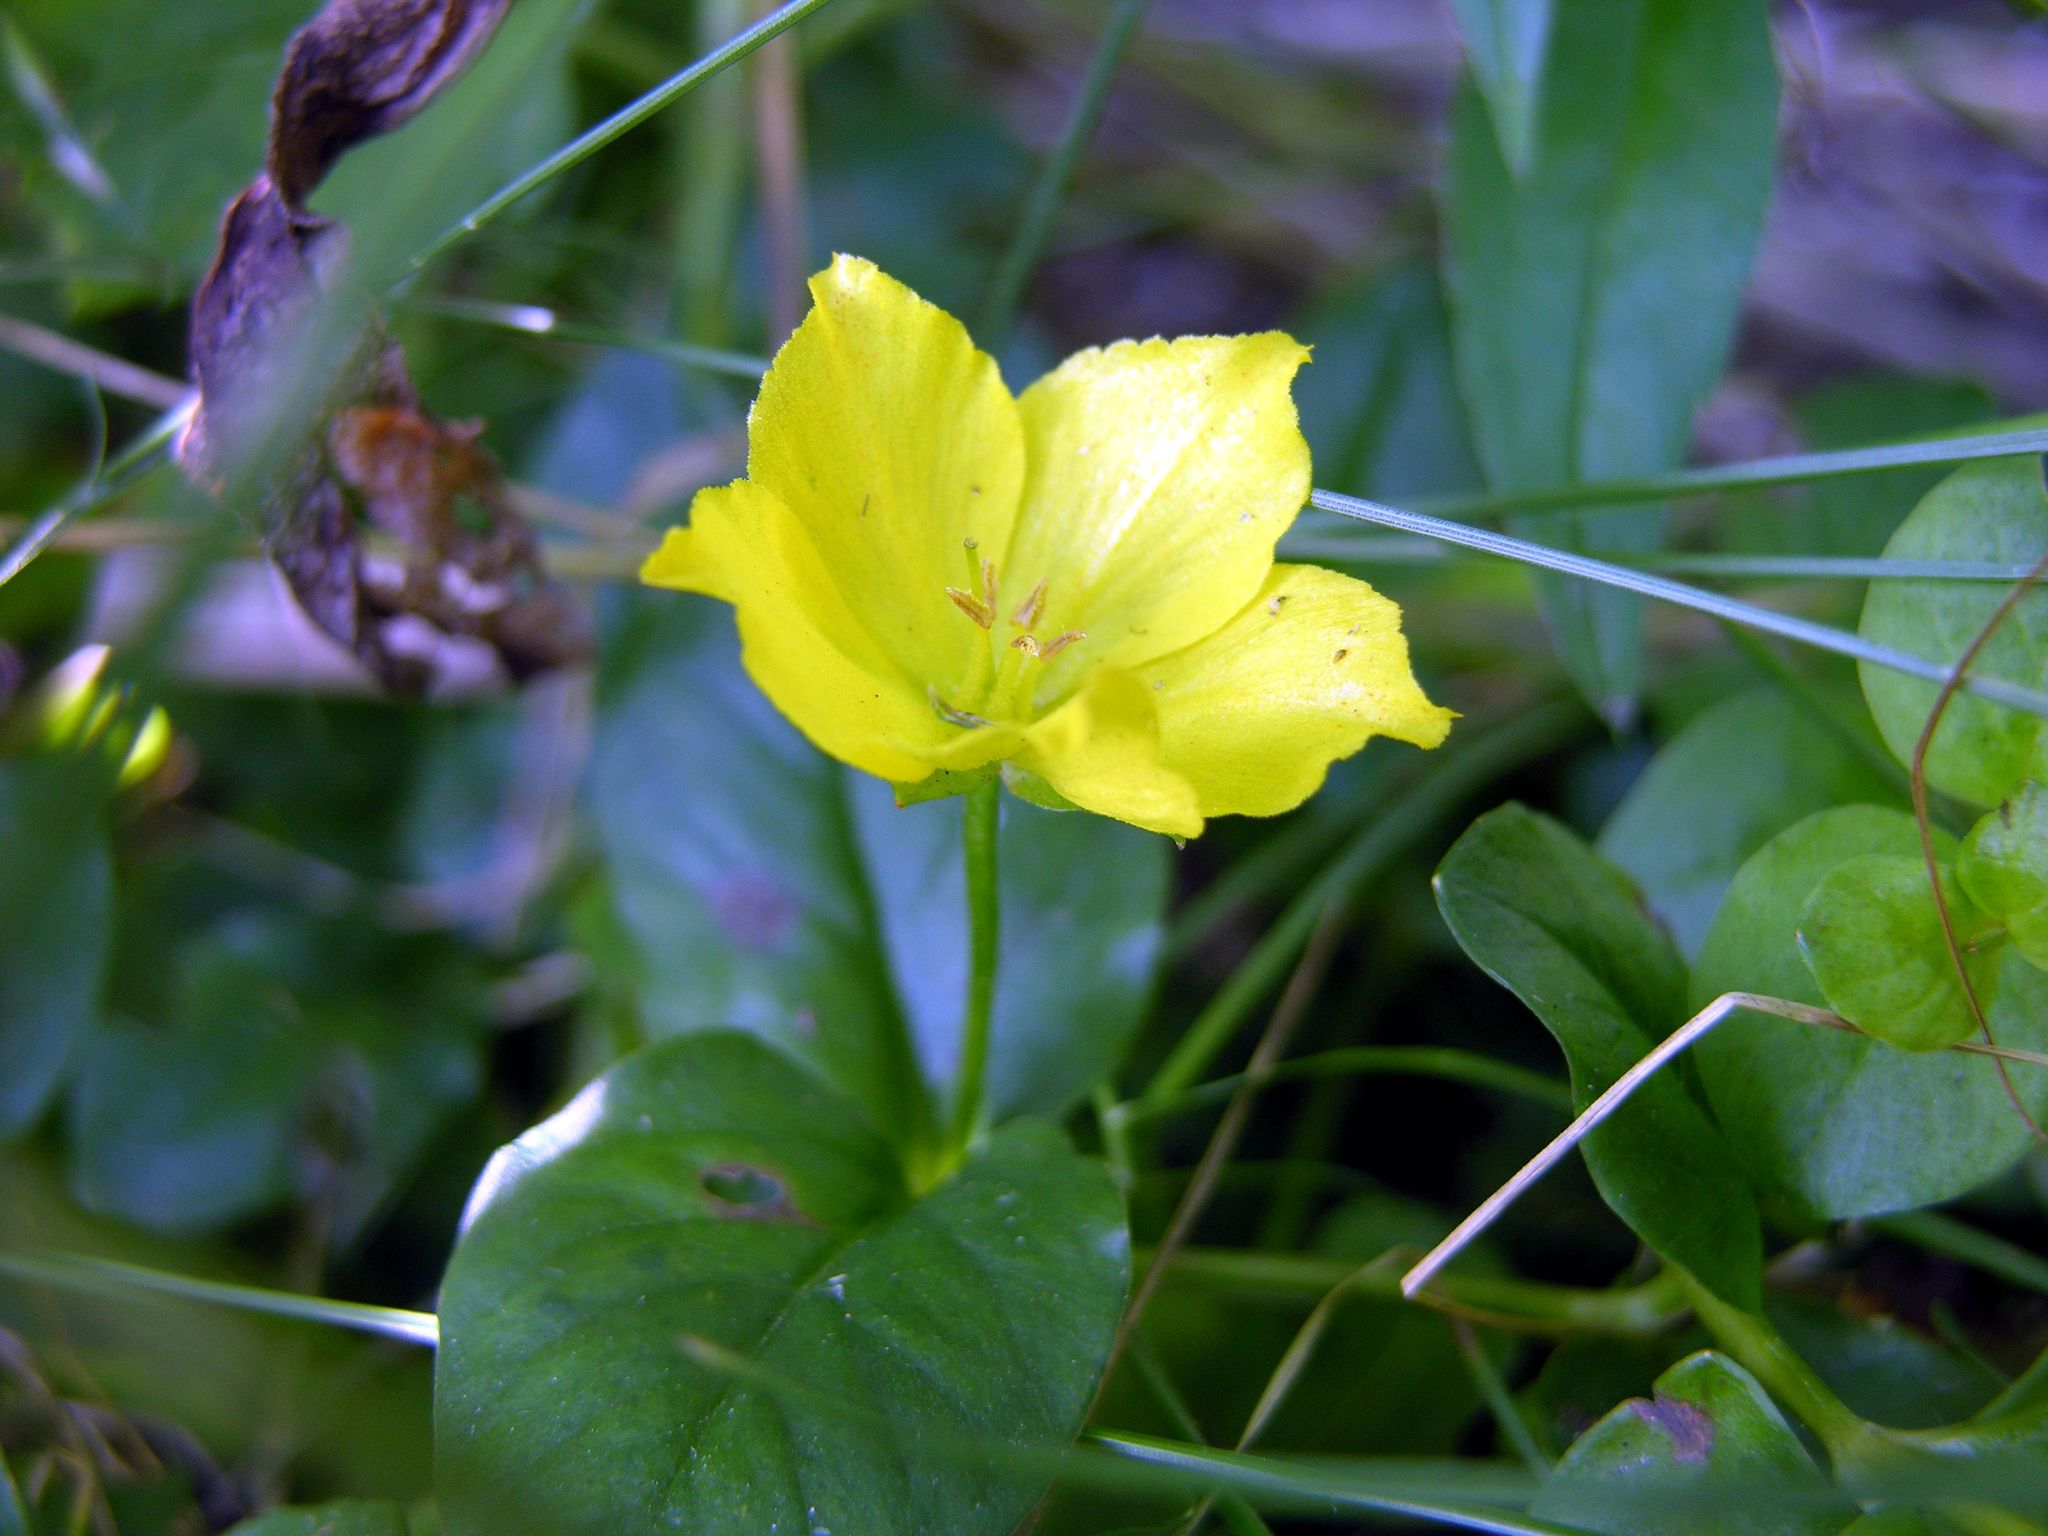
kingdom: Plantae
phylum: Tracheophyta
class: Magnoliopsida
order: Ericales
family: Primulaceae
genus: Lysimachia
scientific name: Lysimachia nummularia
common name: Moneywort
